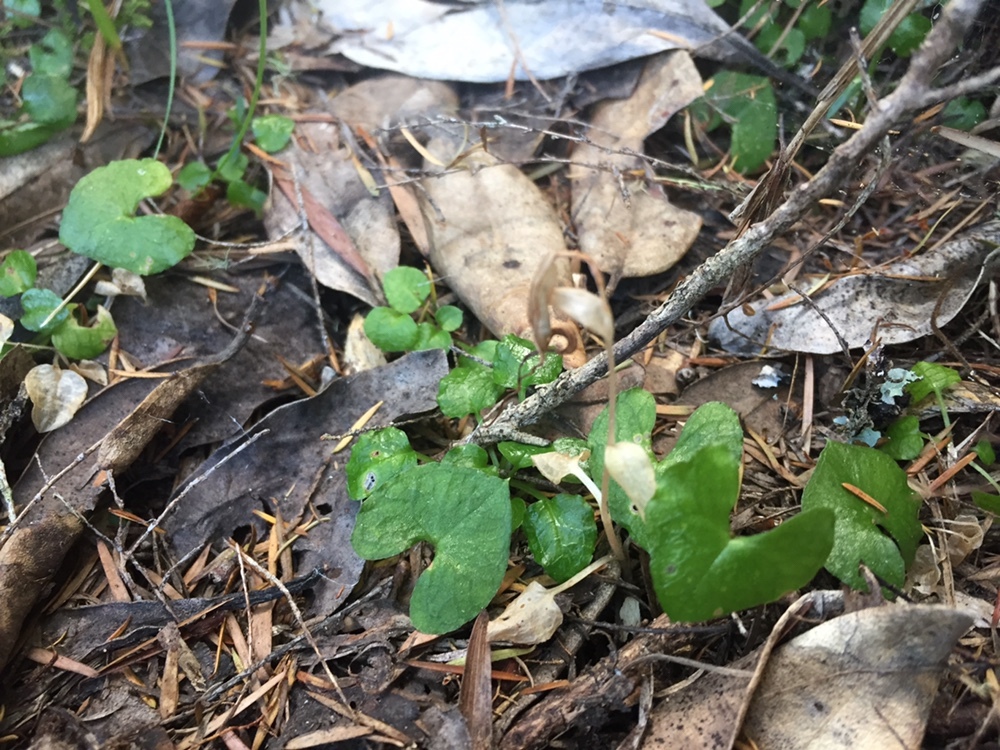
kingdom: Plantae
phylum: Tracheophyta
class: Liliopsida
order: Asparagales
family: Orchidaceae
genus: Acianthus
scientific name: Acianthus sinclairii
